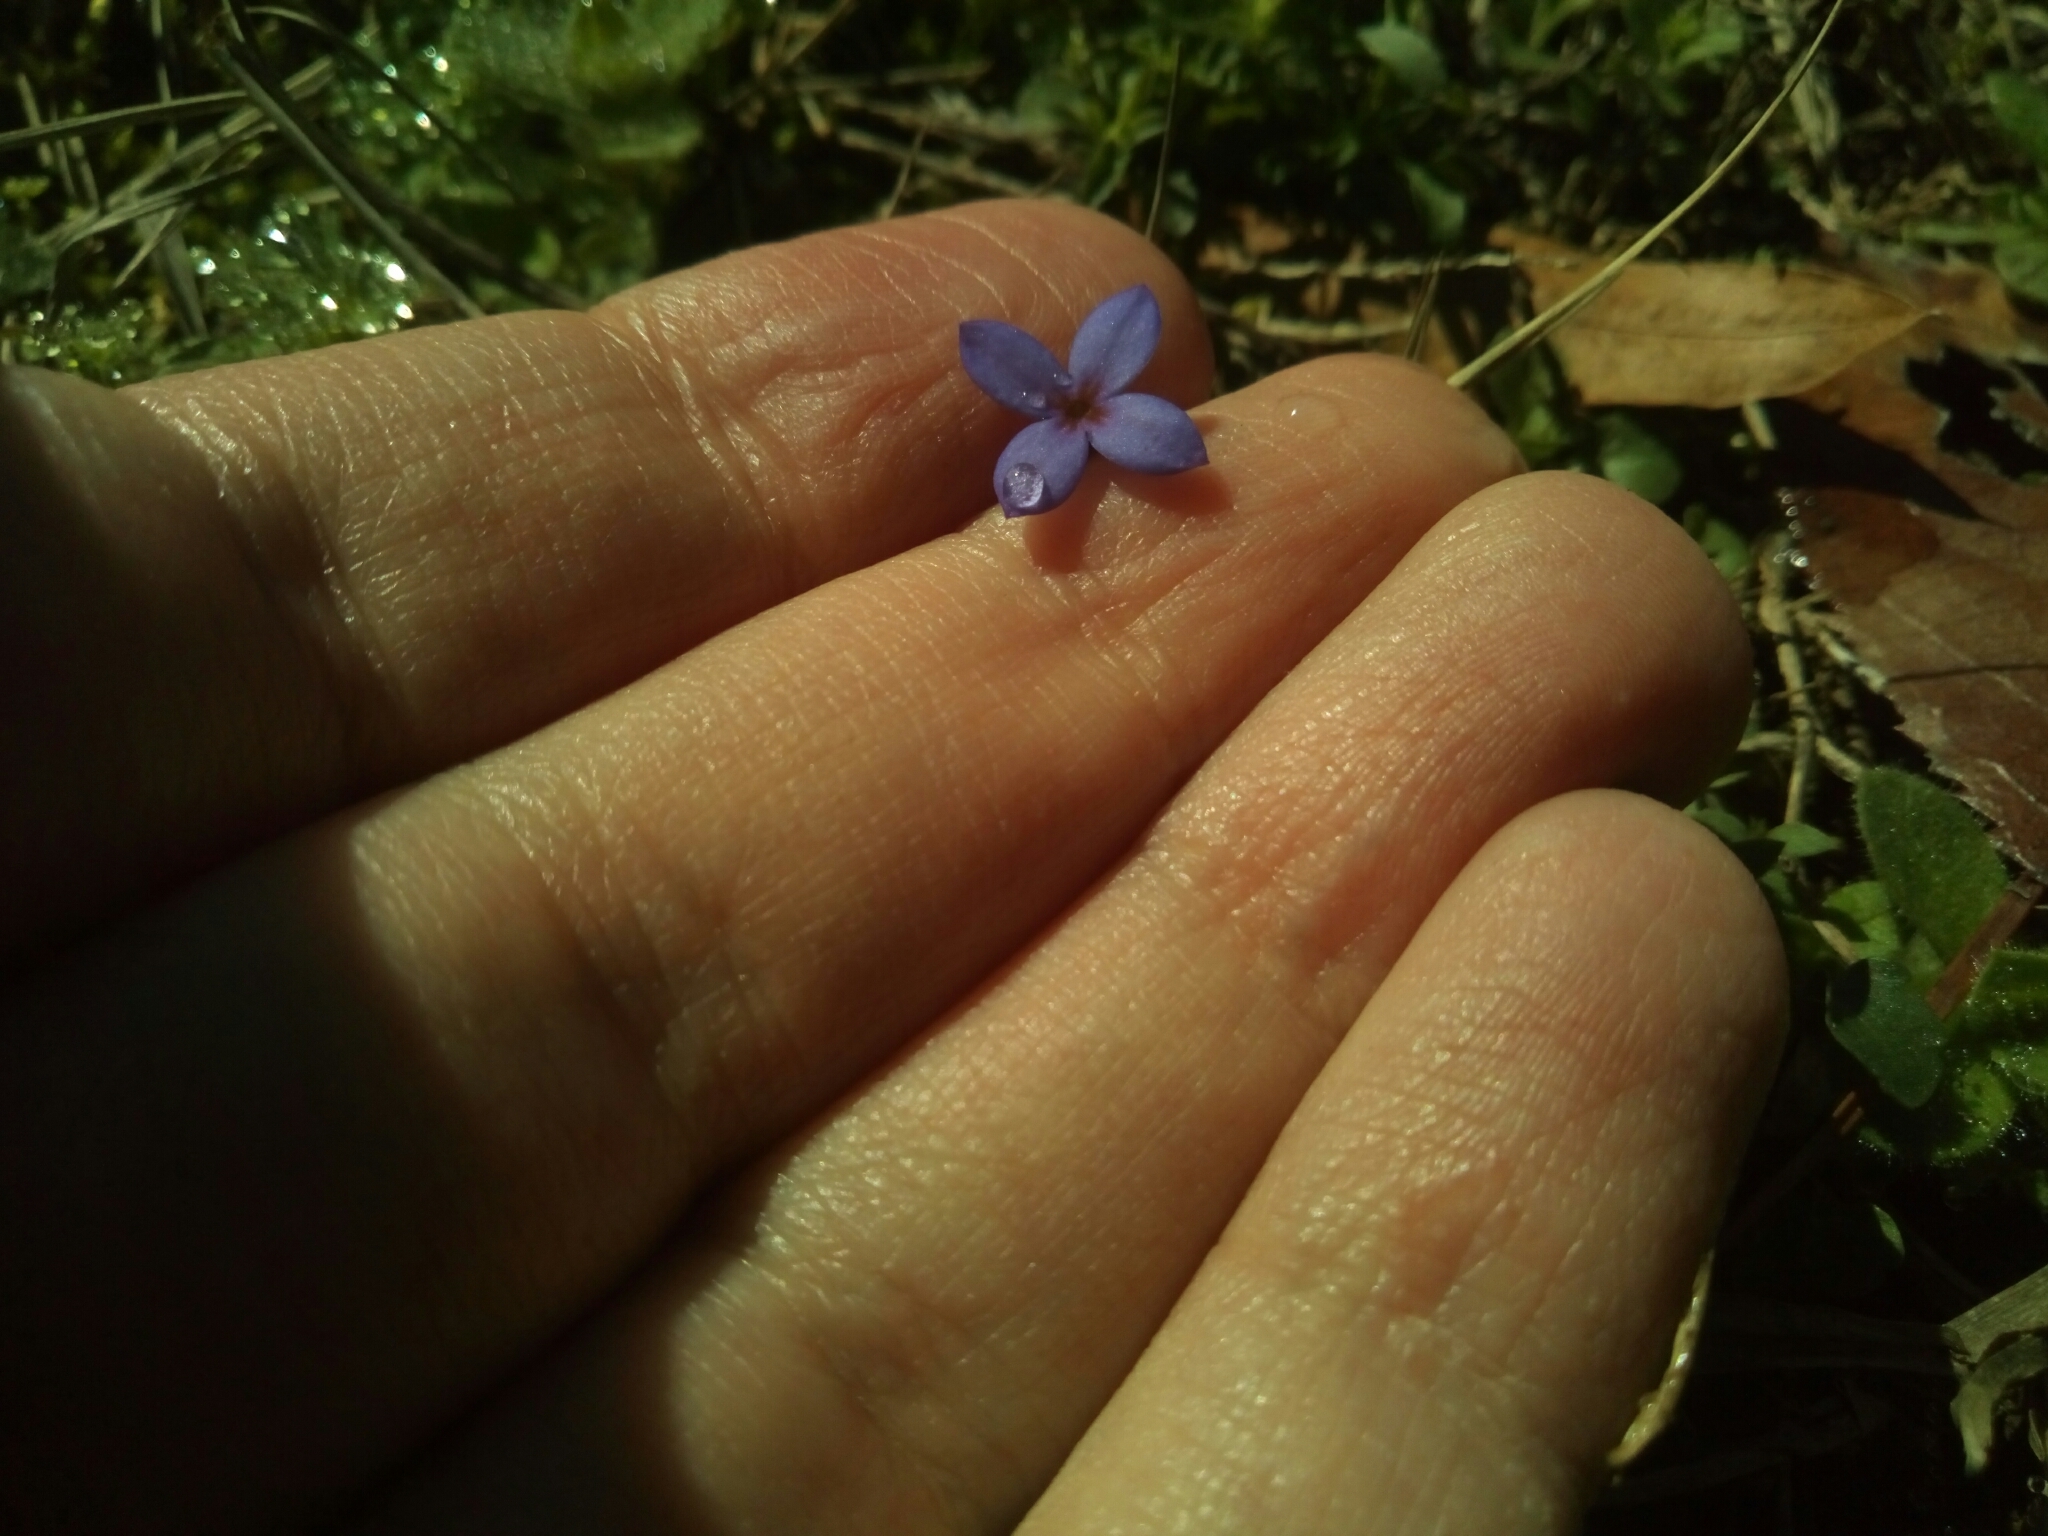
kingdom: Plantae
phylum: Tracheophyta
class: Magnoliopsida
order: Gentianales
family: Rubiaceae
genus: Houstonia
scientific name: Houstonia pusilla
